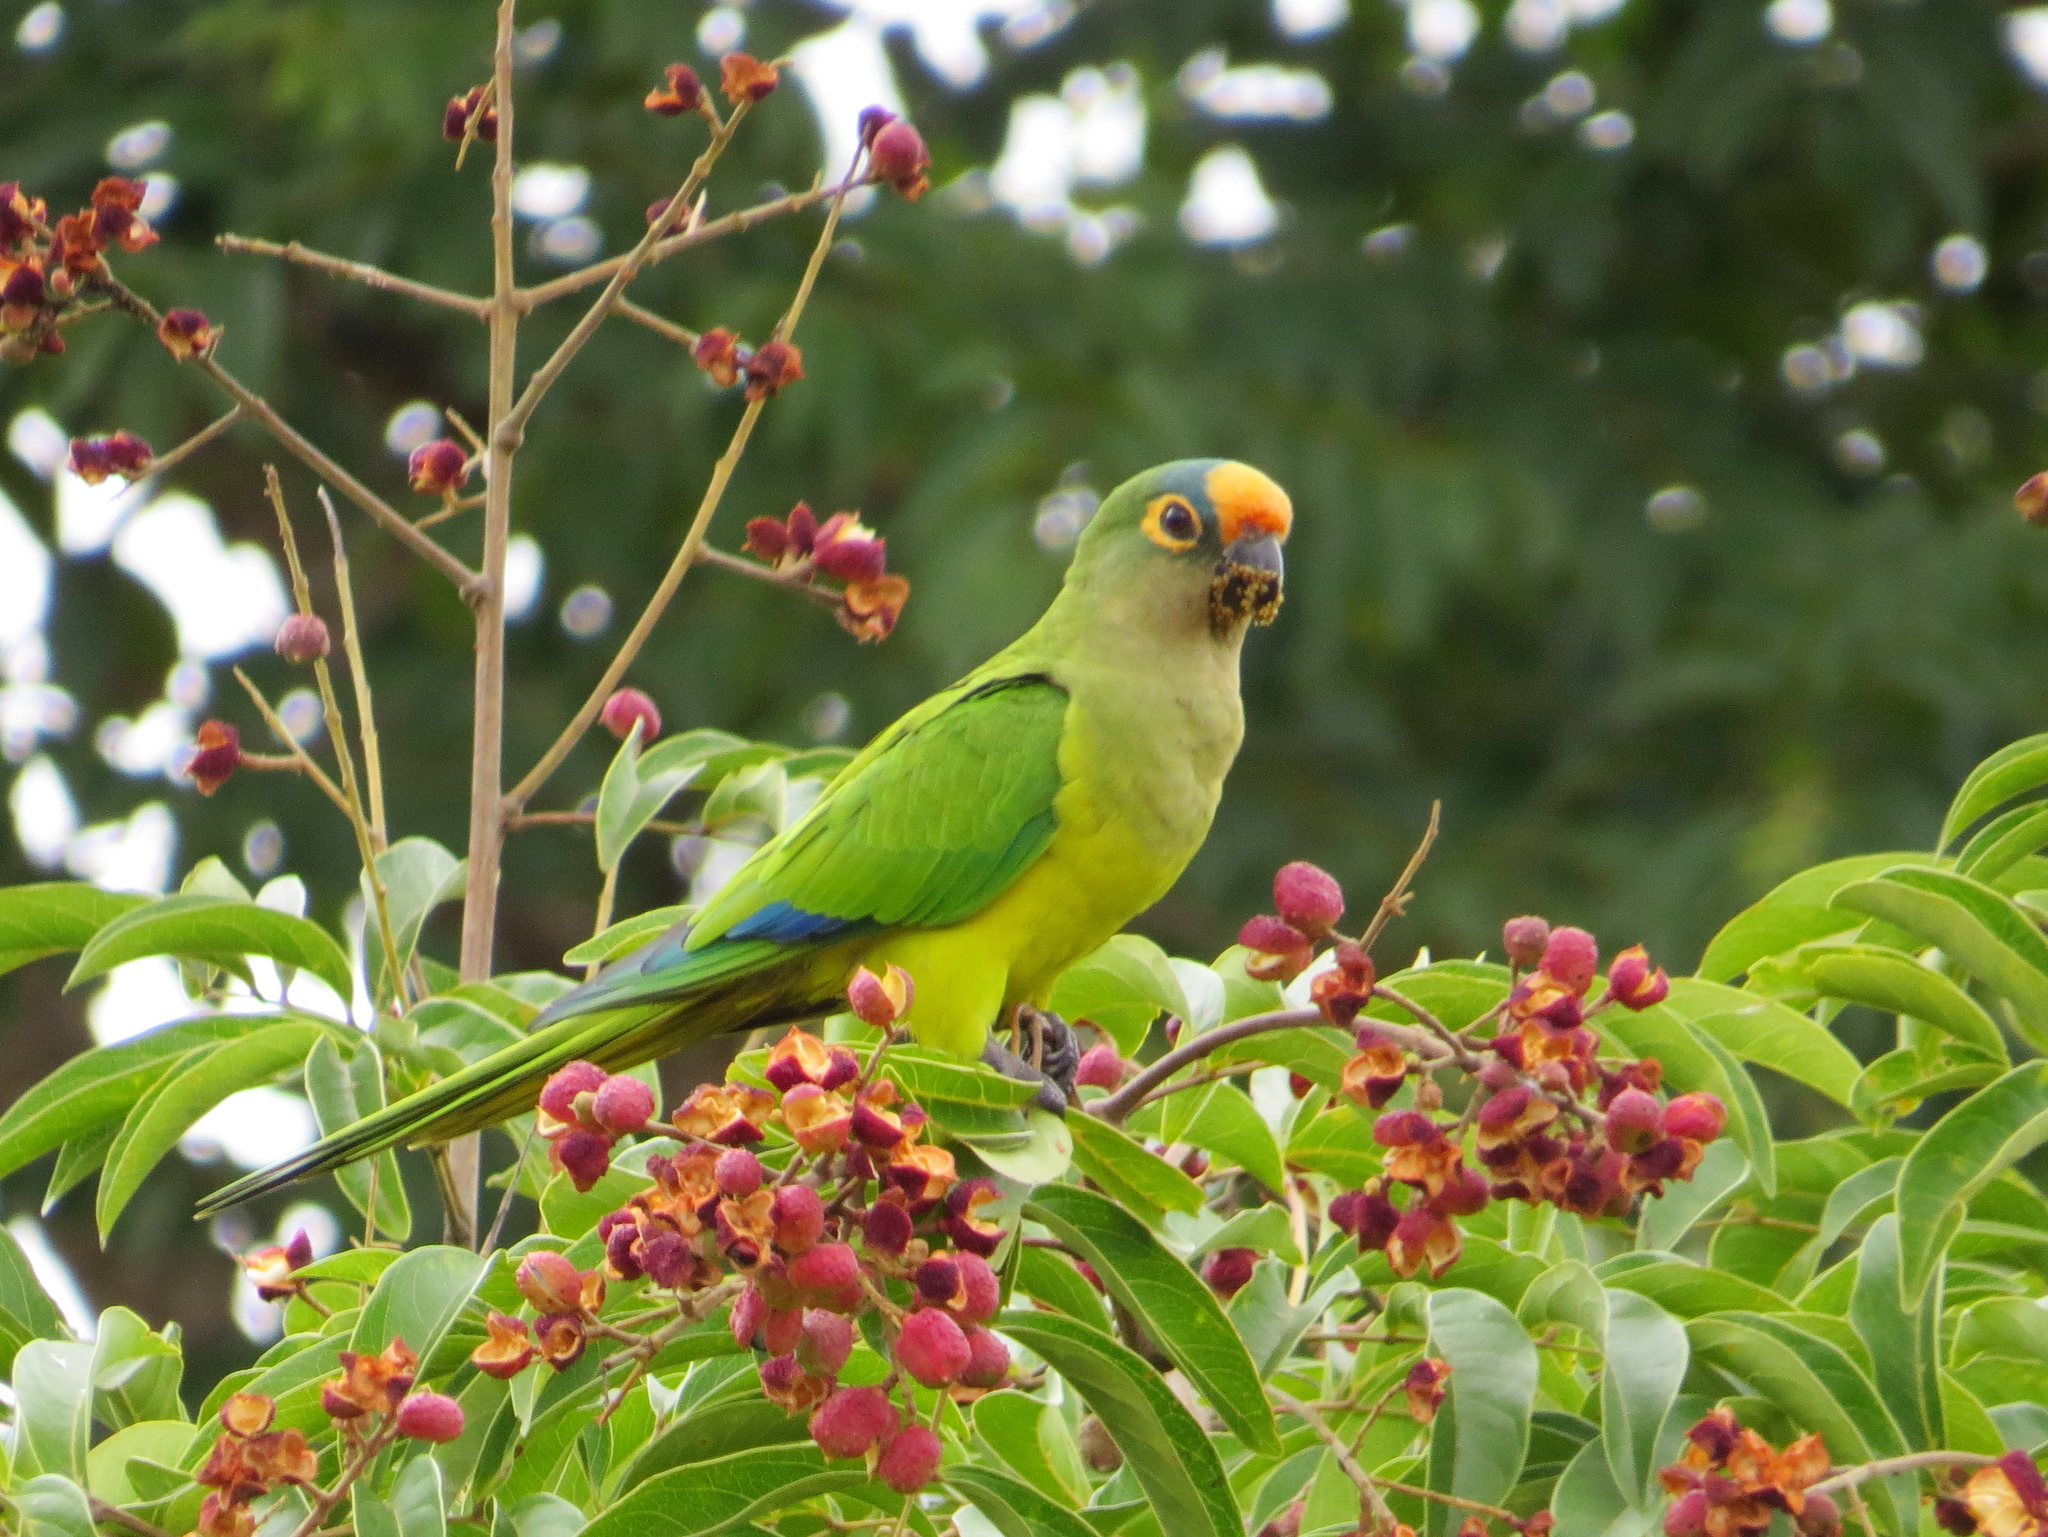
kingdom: Animalia
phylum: Chordata
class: Aves
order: Psittaciformes
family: Psittacidae
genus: Aratinga
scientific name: Aratinga aurea
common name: Peach-fronted parakeet
